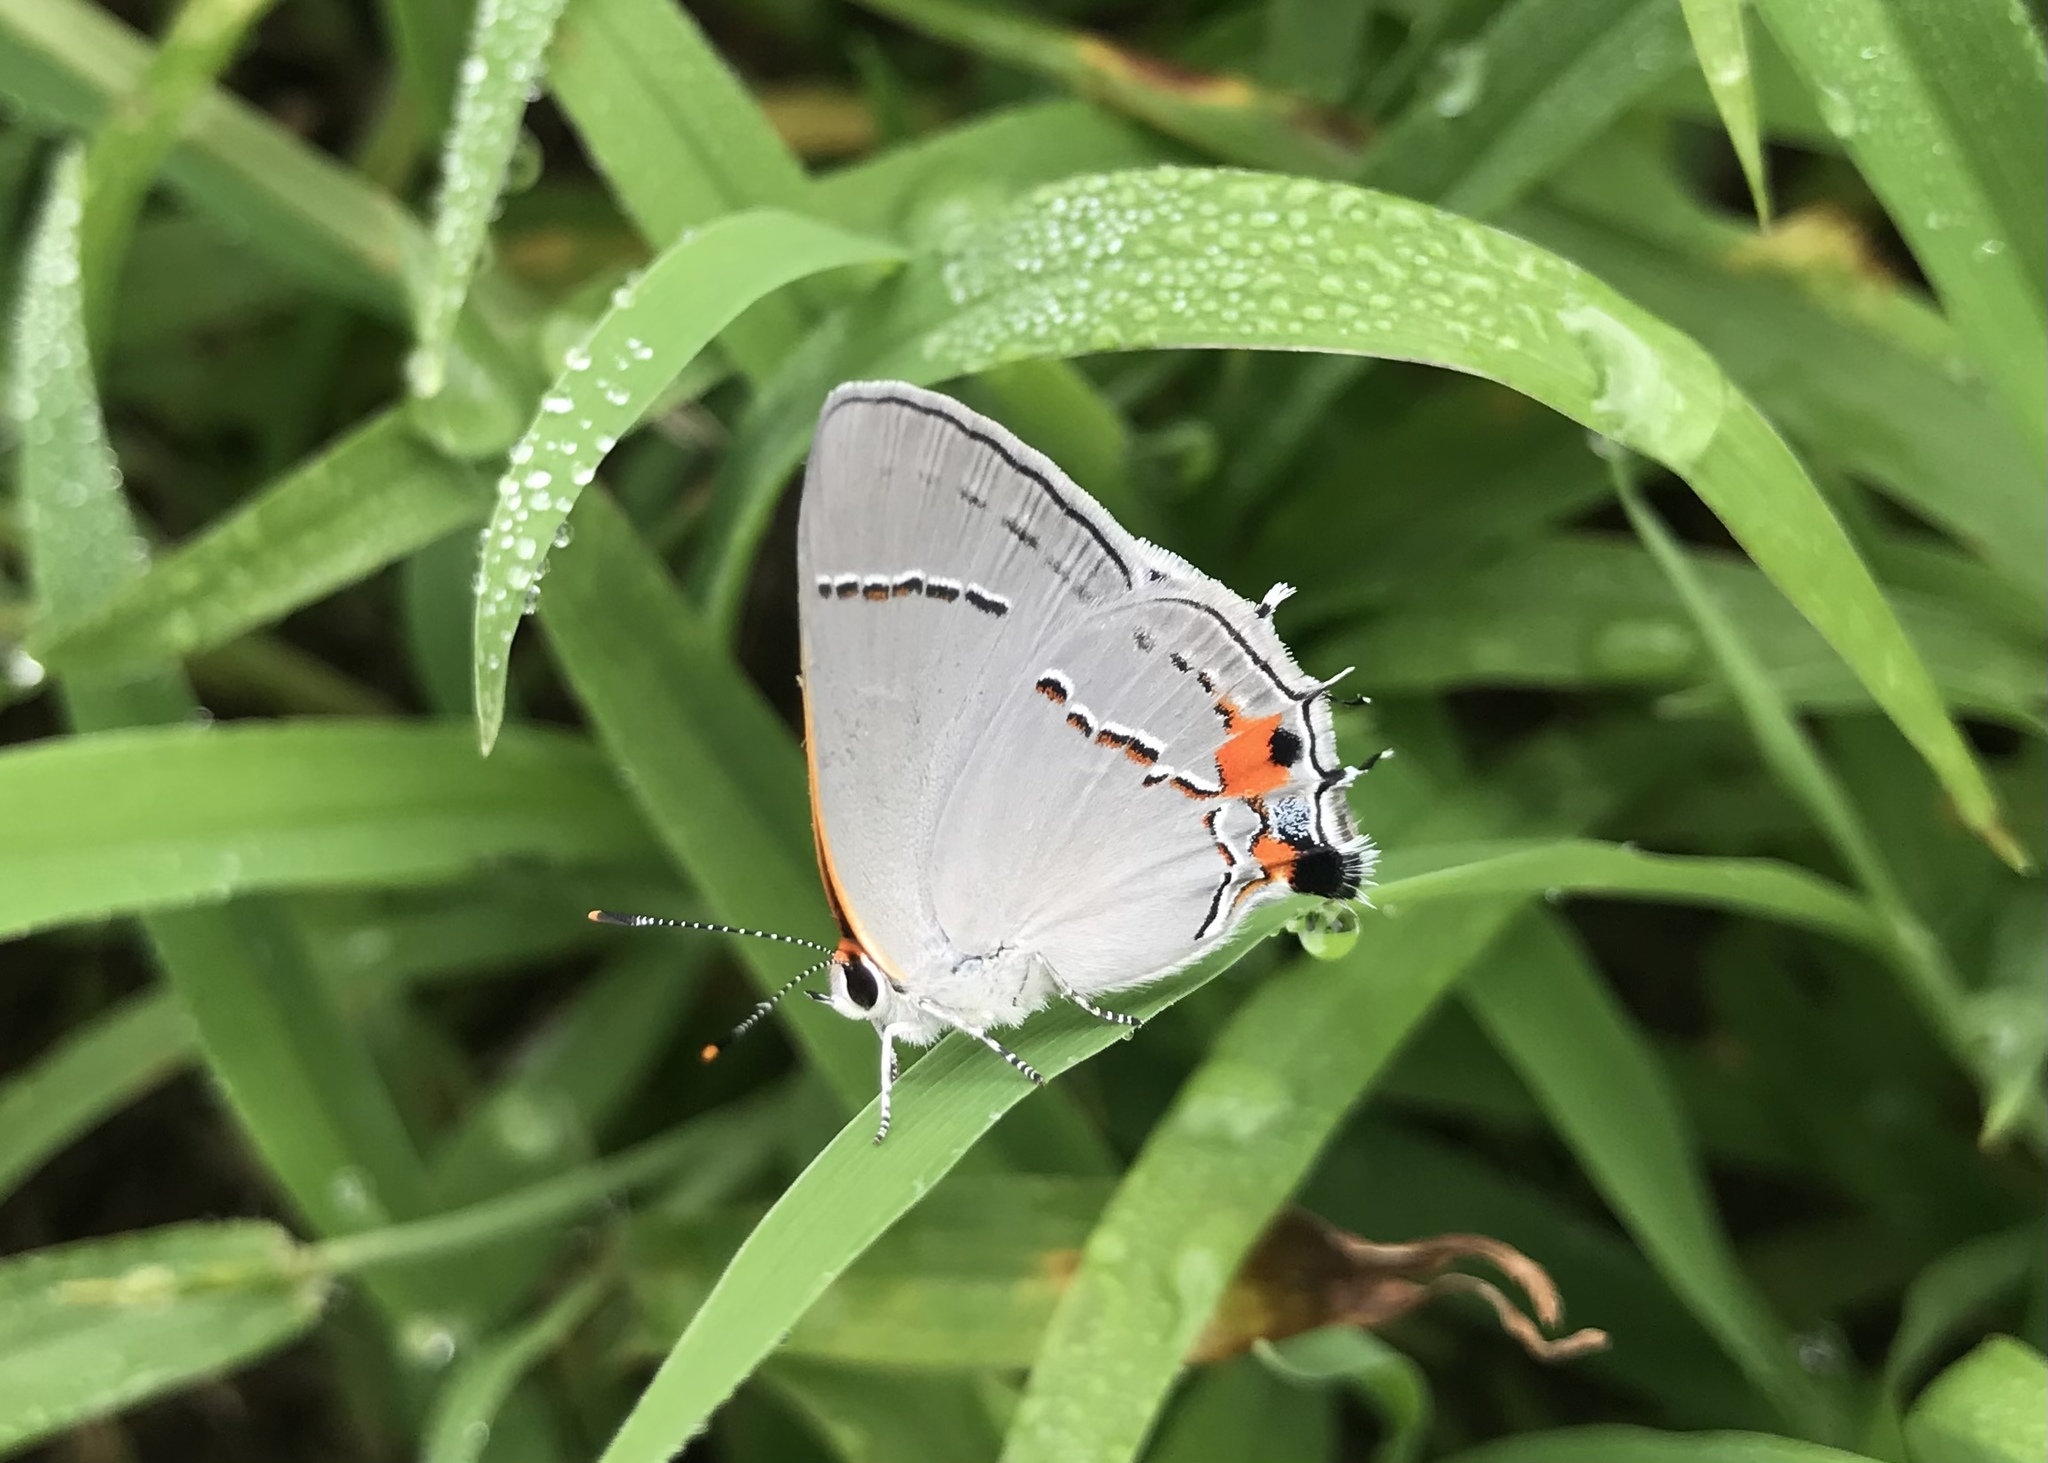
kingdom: Animalia
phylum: Arthropoda
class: Insecta
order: Lepidoptera
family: Lycaenidae
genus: Strymon
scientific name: Strymon melinus
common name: Gray hairstreak
